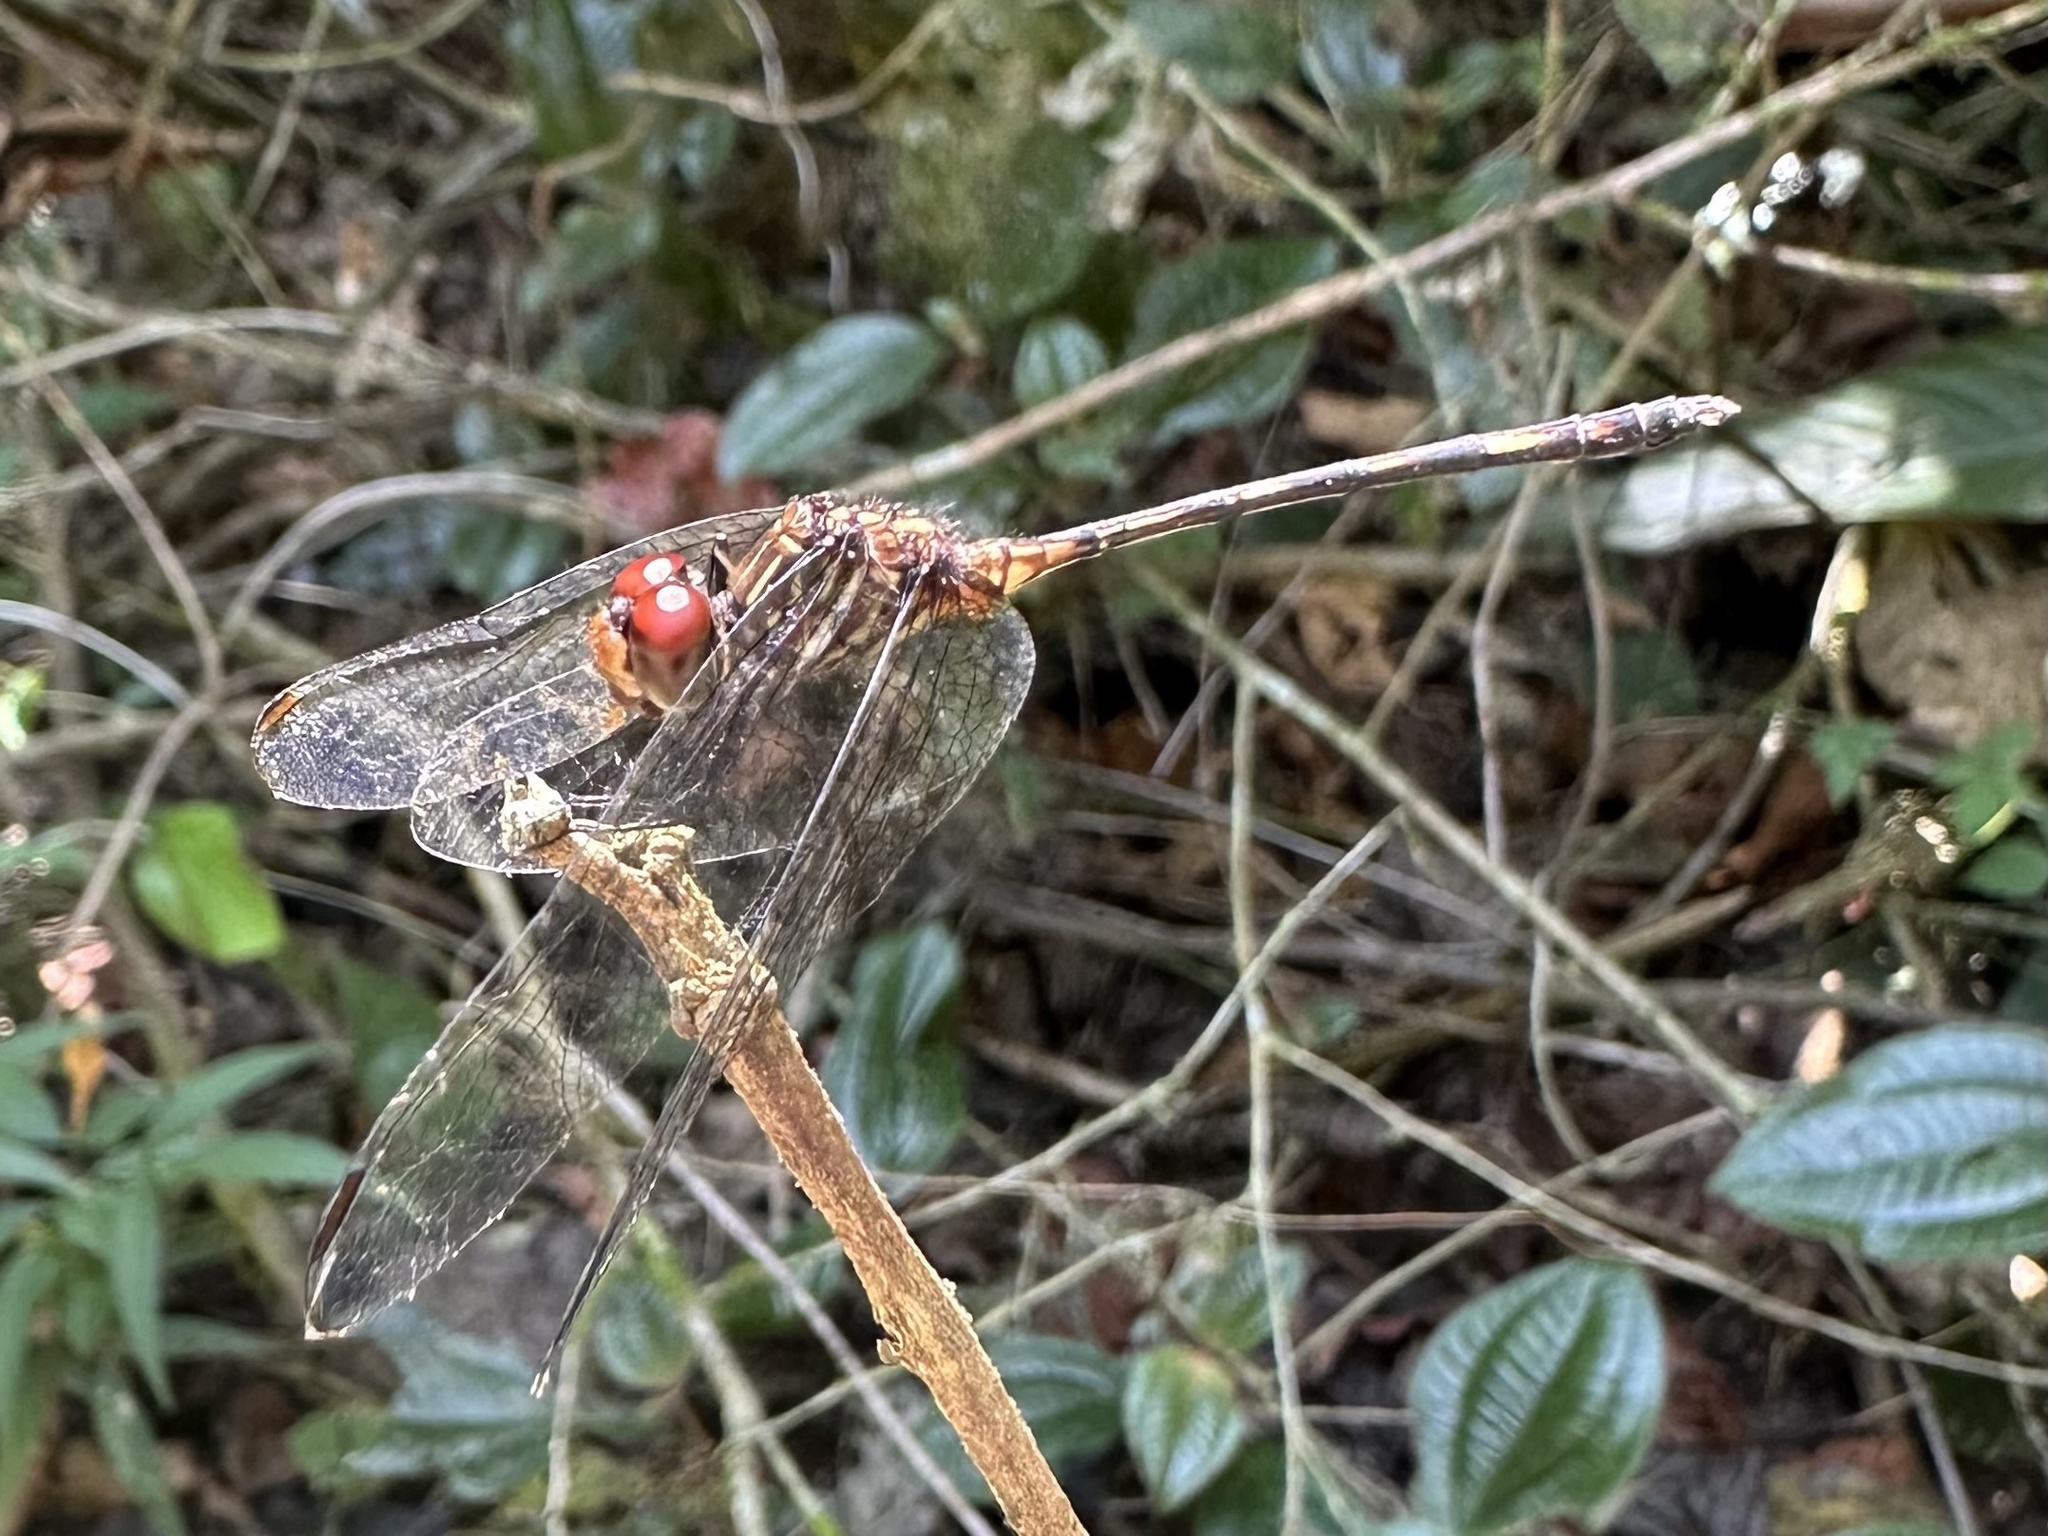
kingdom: Animalia
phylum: Arthropoda
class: Insecta
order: Odonata
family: Libellulidae
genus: Dythemis
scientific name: Dythemis sterilis
